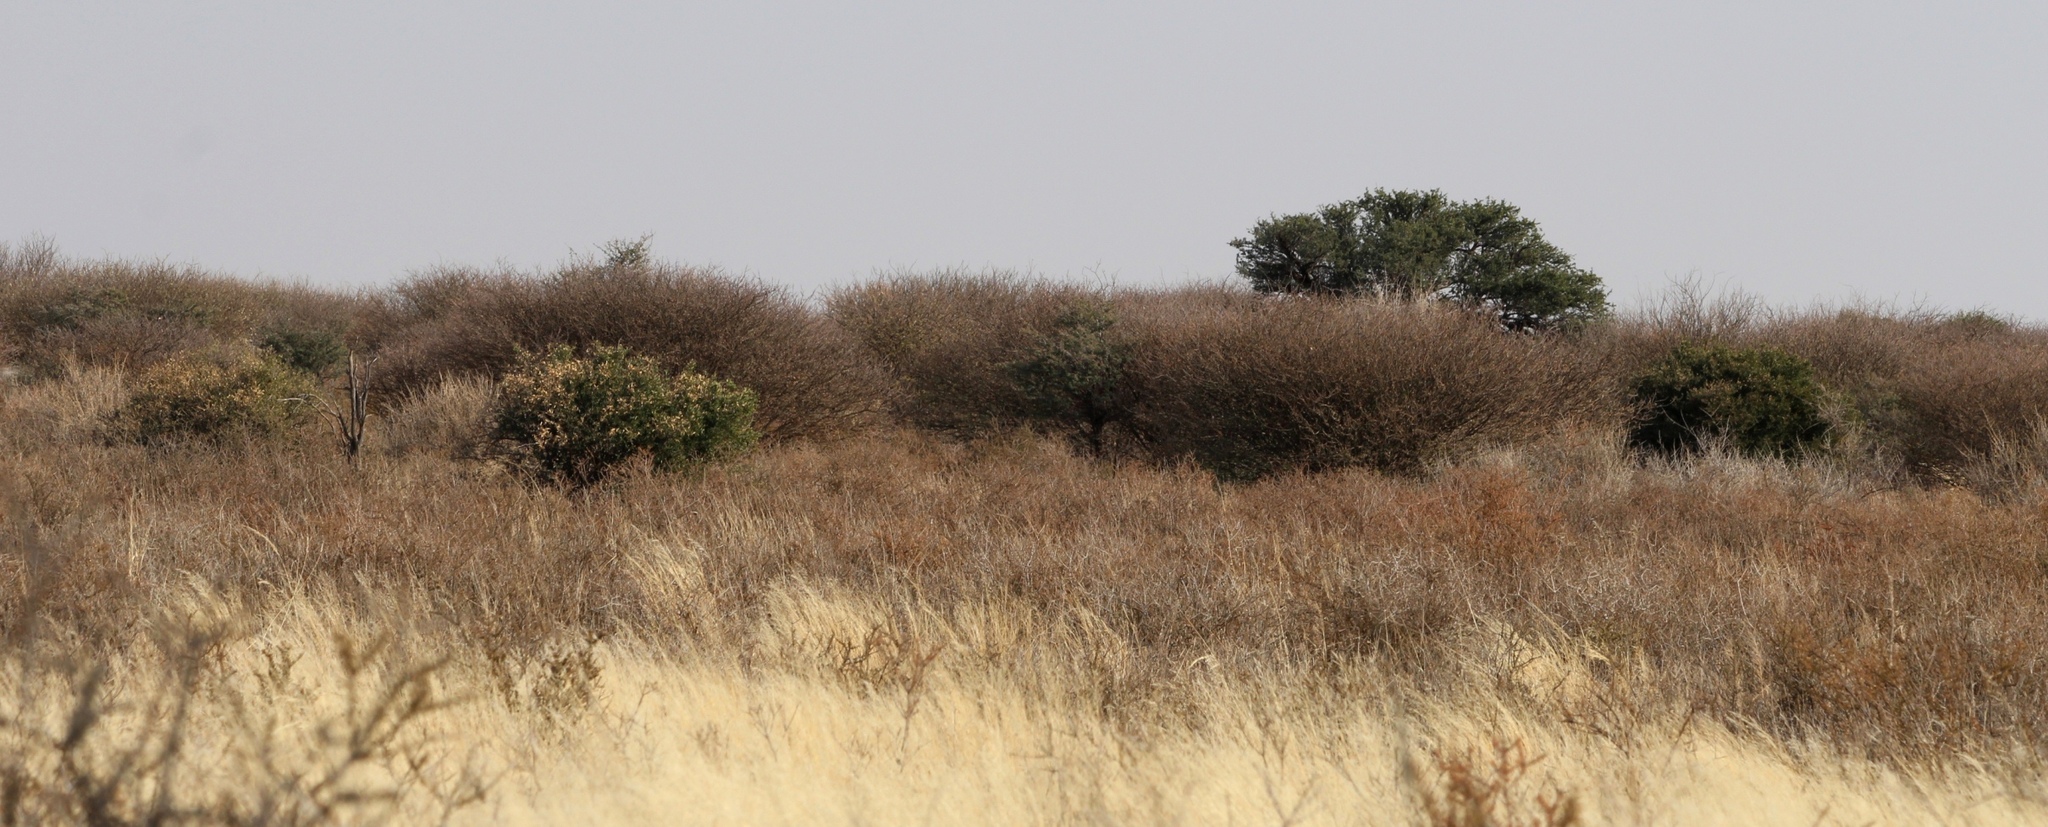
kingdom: Plantae
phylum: Tracheophyta
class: Magnoliopsida
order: Fabales
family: Fabaceae
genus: Senegalia
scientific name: Senegalia mellifera
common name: Hookthorn
